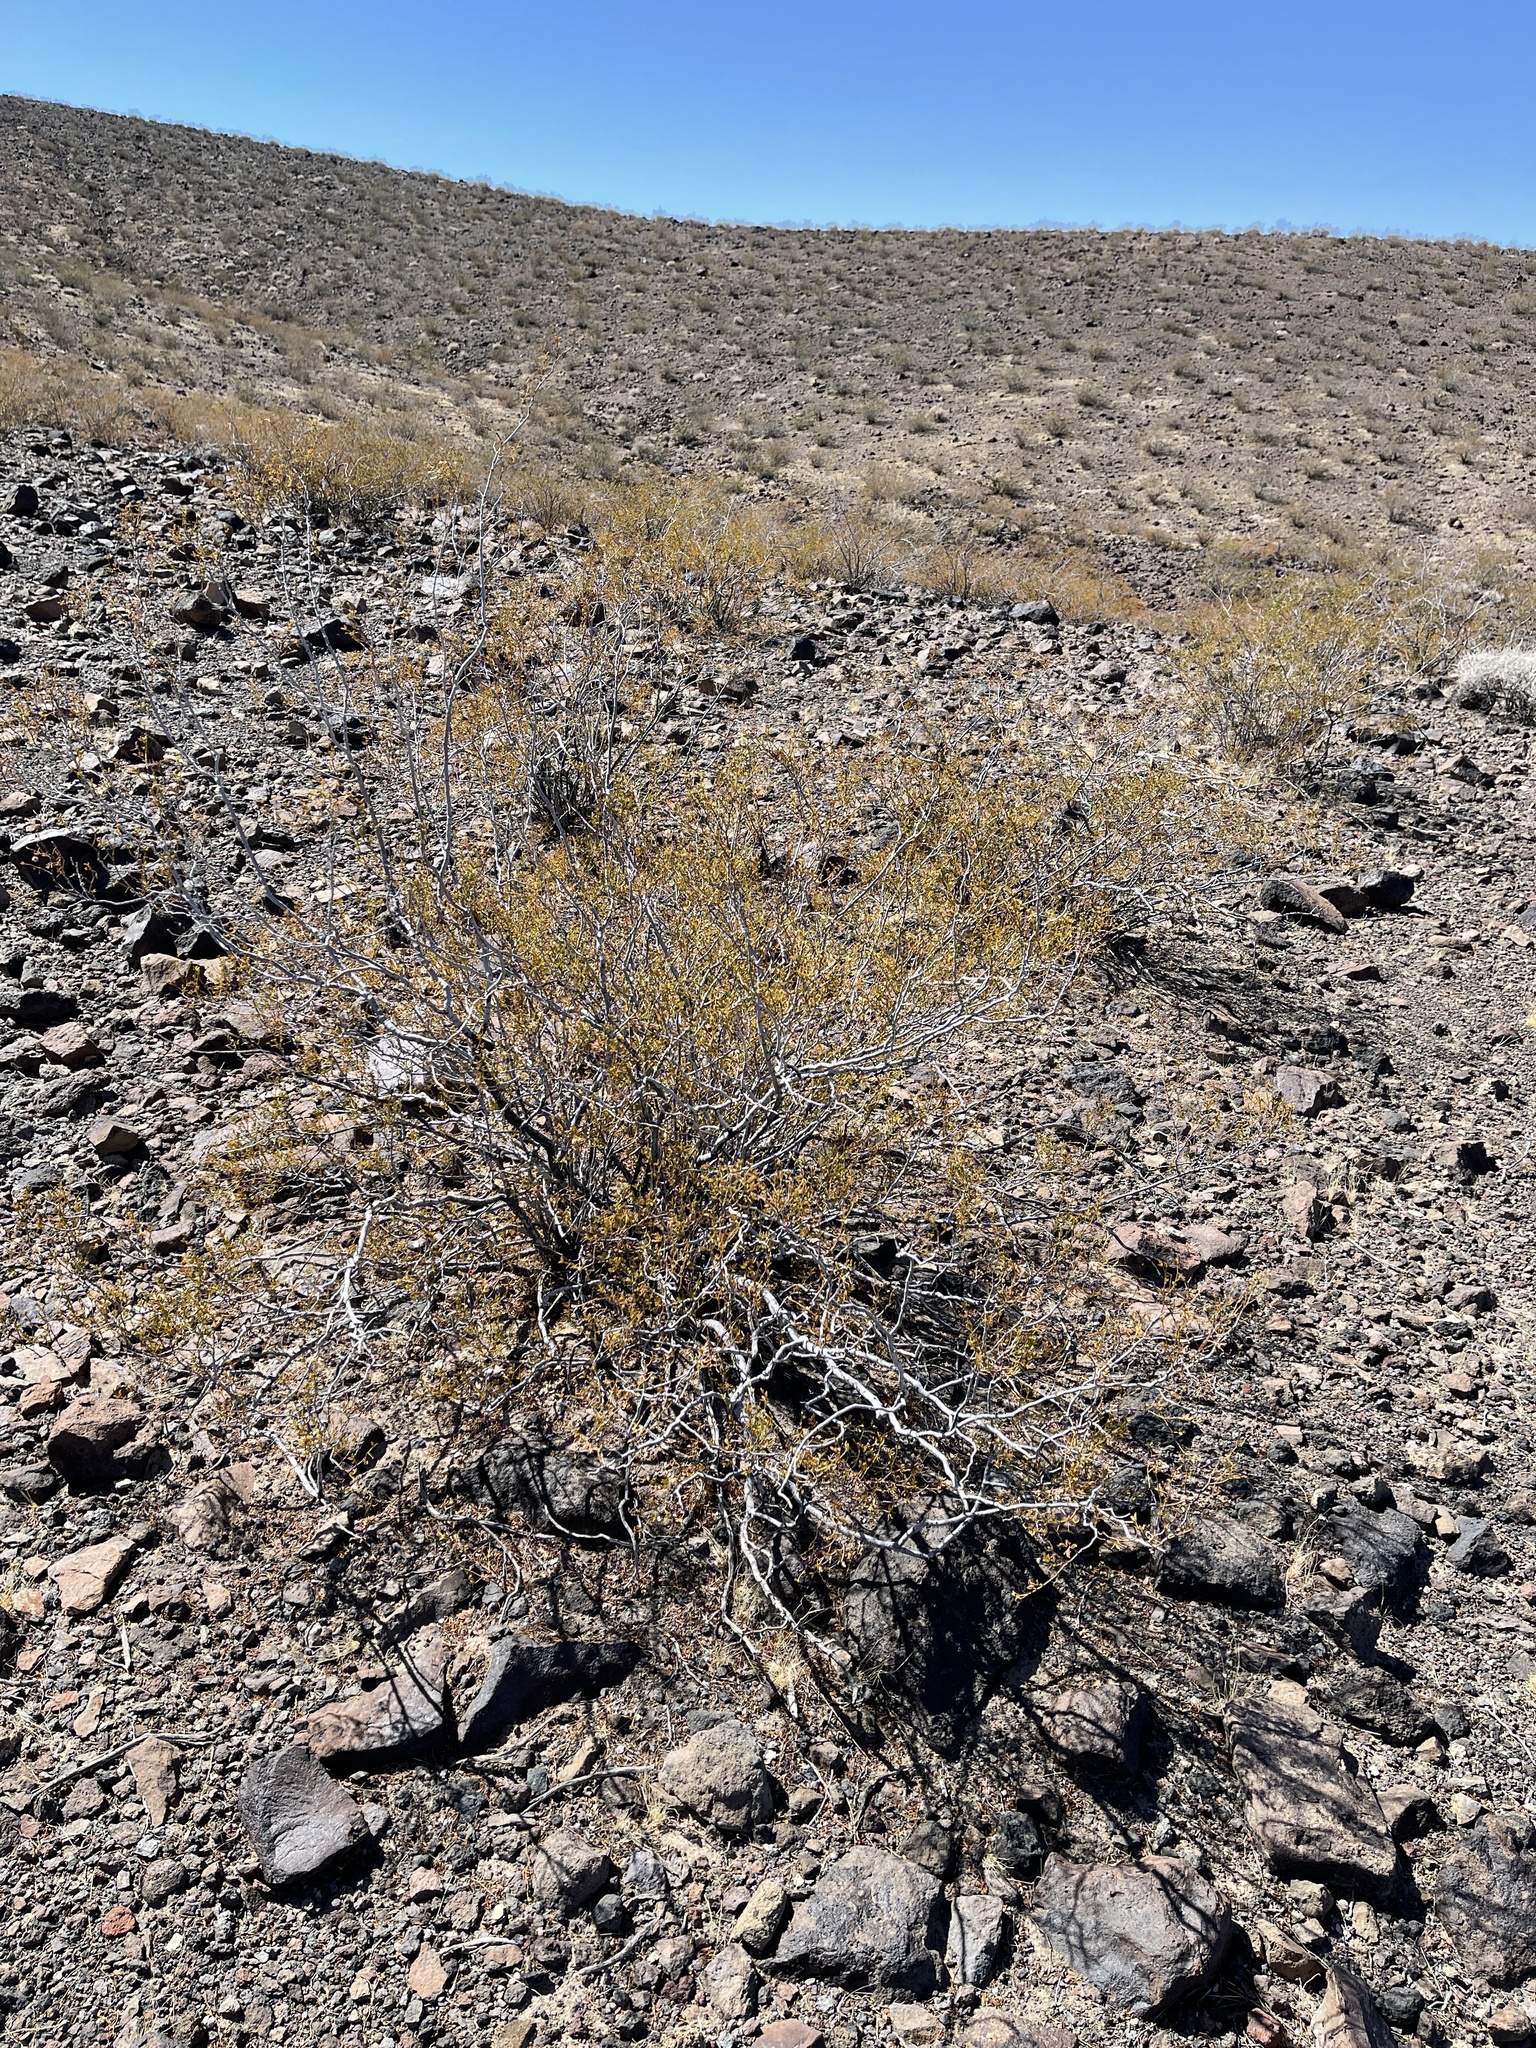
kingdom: Plantae
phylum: Tracheophyta
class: Magnoliopsida
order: Zygophyllales
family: Zygophyllaceae
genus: Larrea
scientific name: Larrea tridentata
